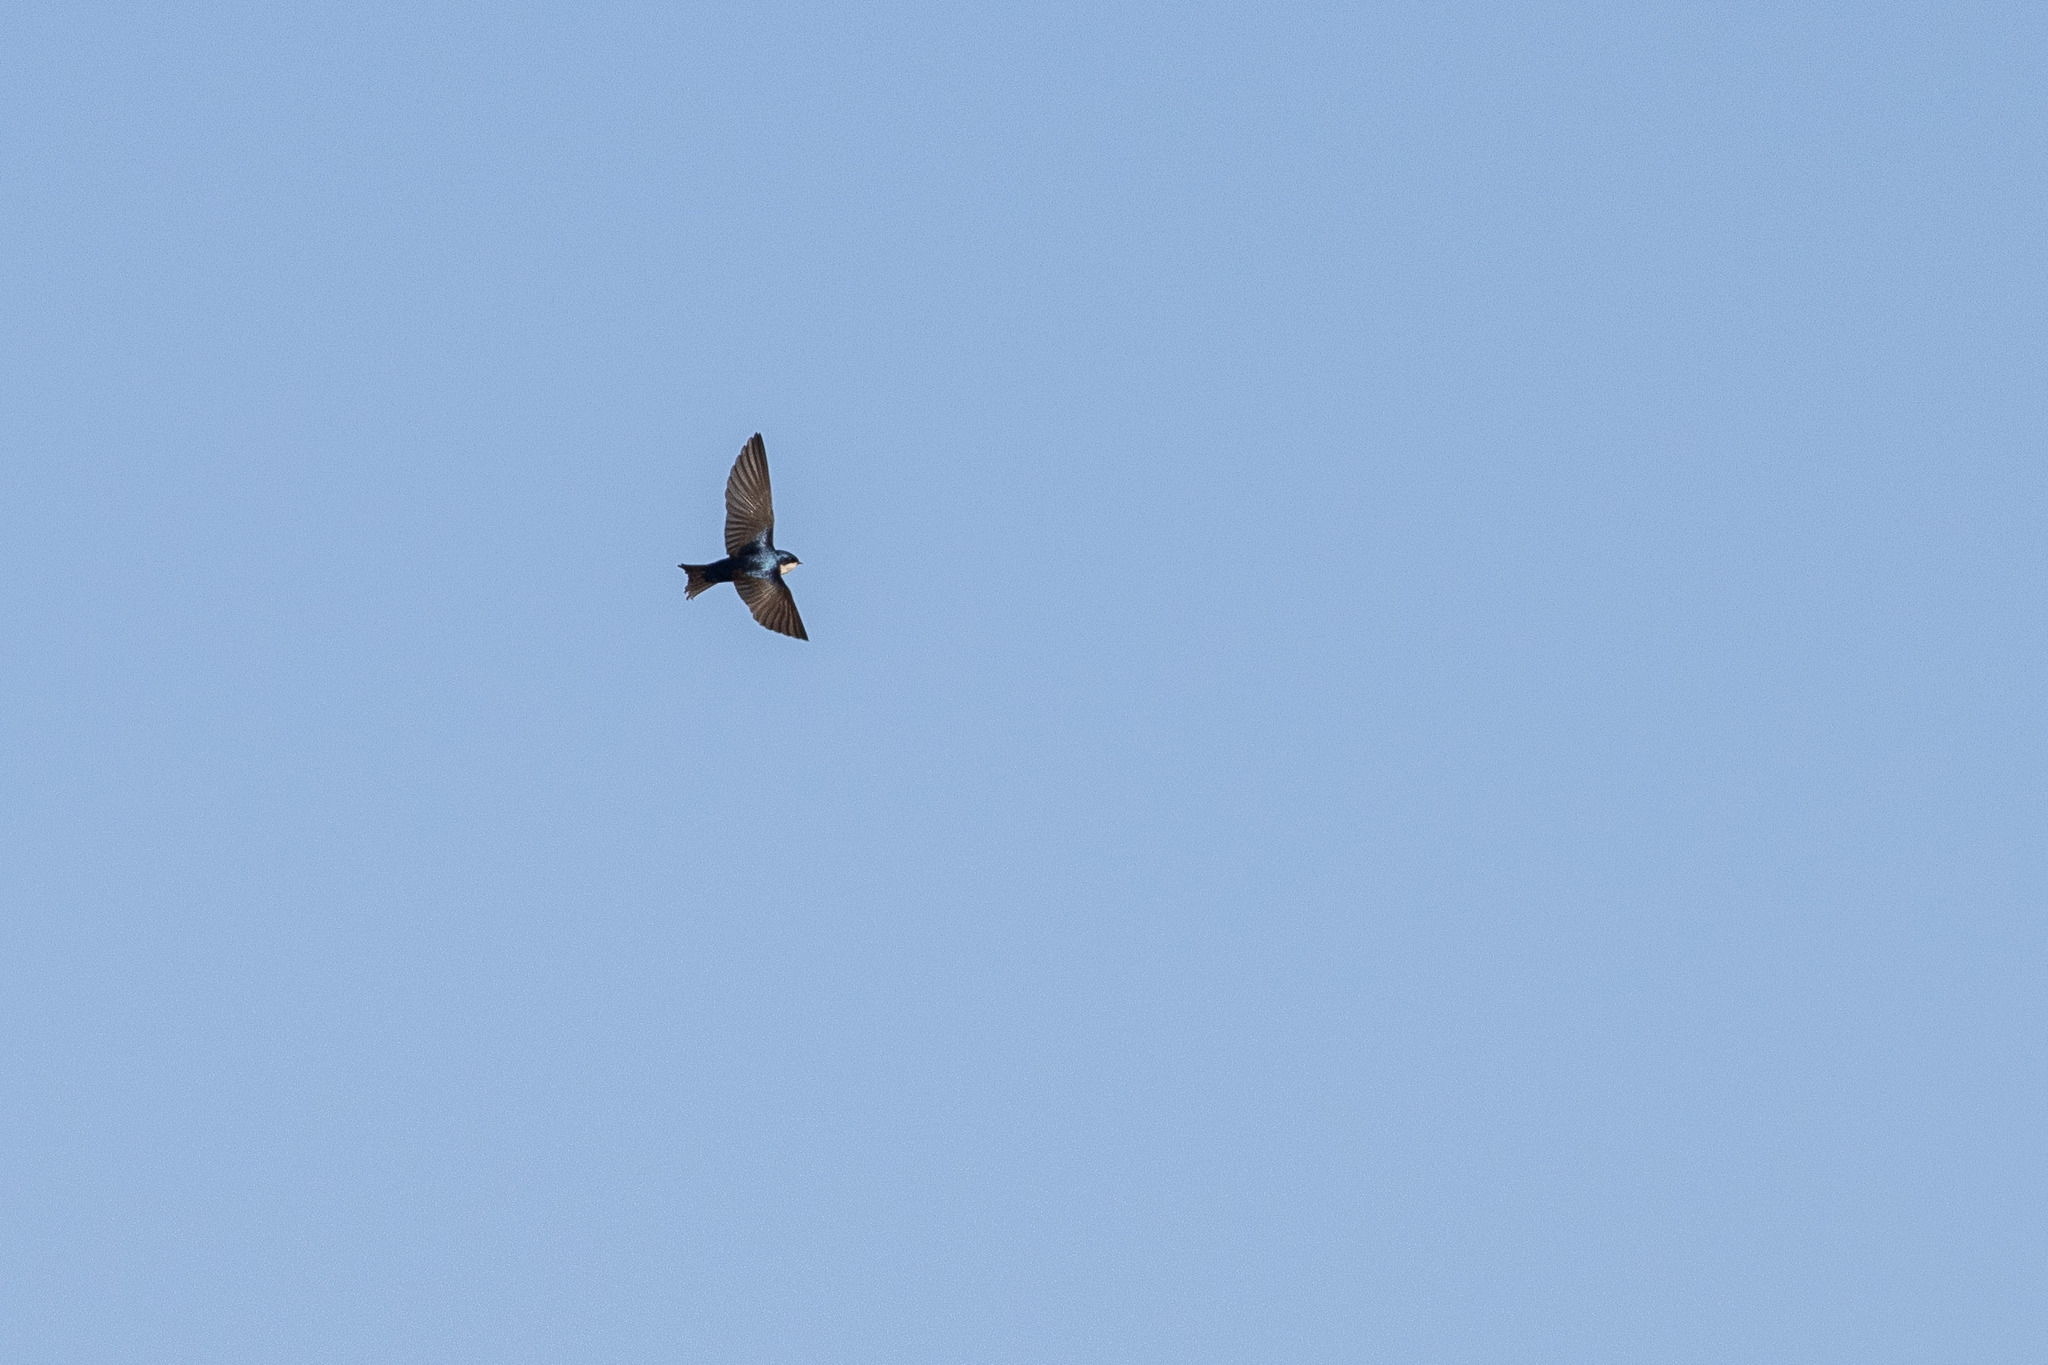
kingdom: Animalia
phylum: Chordata
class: Aves
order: Passeriformes
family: Hirundinidae
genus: Notiochelidon
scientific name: Notiochelidon cyanoleuca
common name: Blue-and-white swallow
